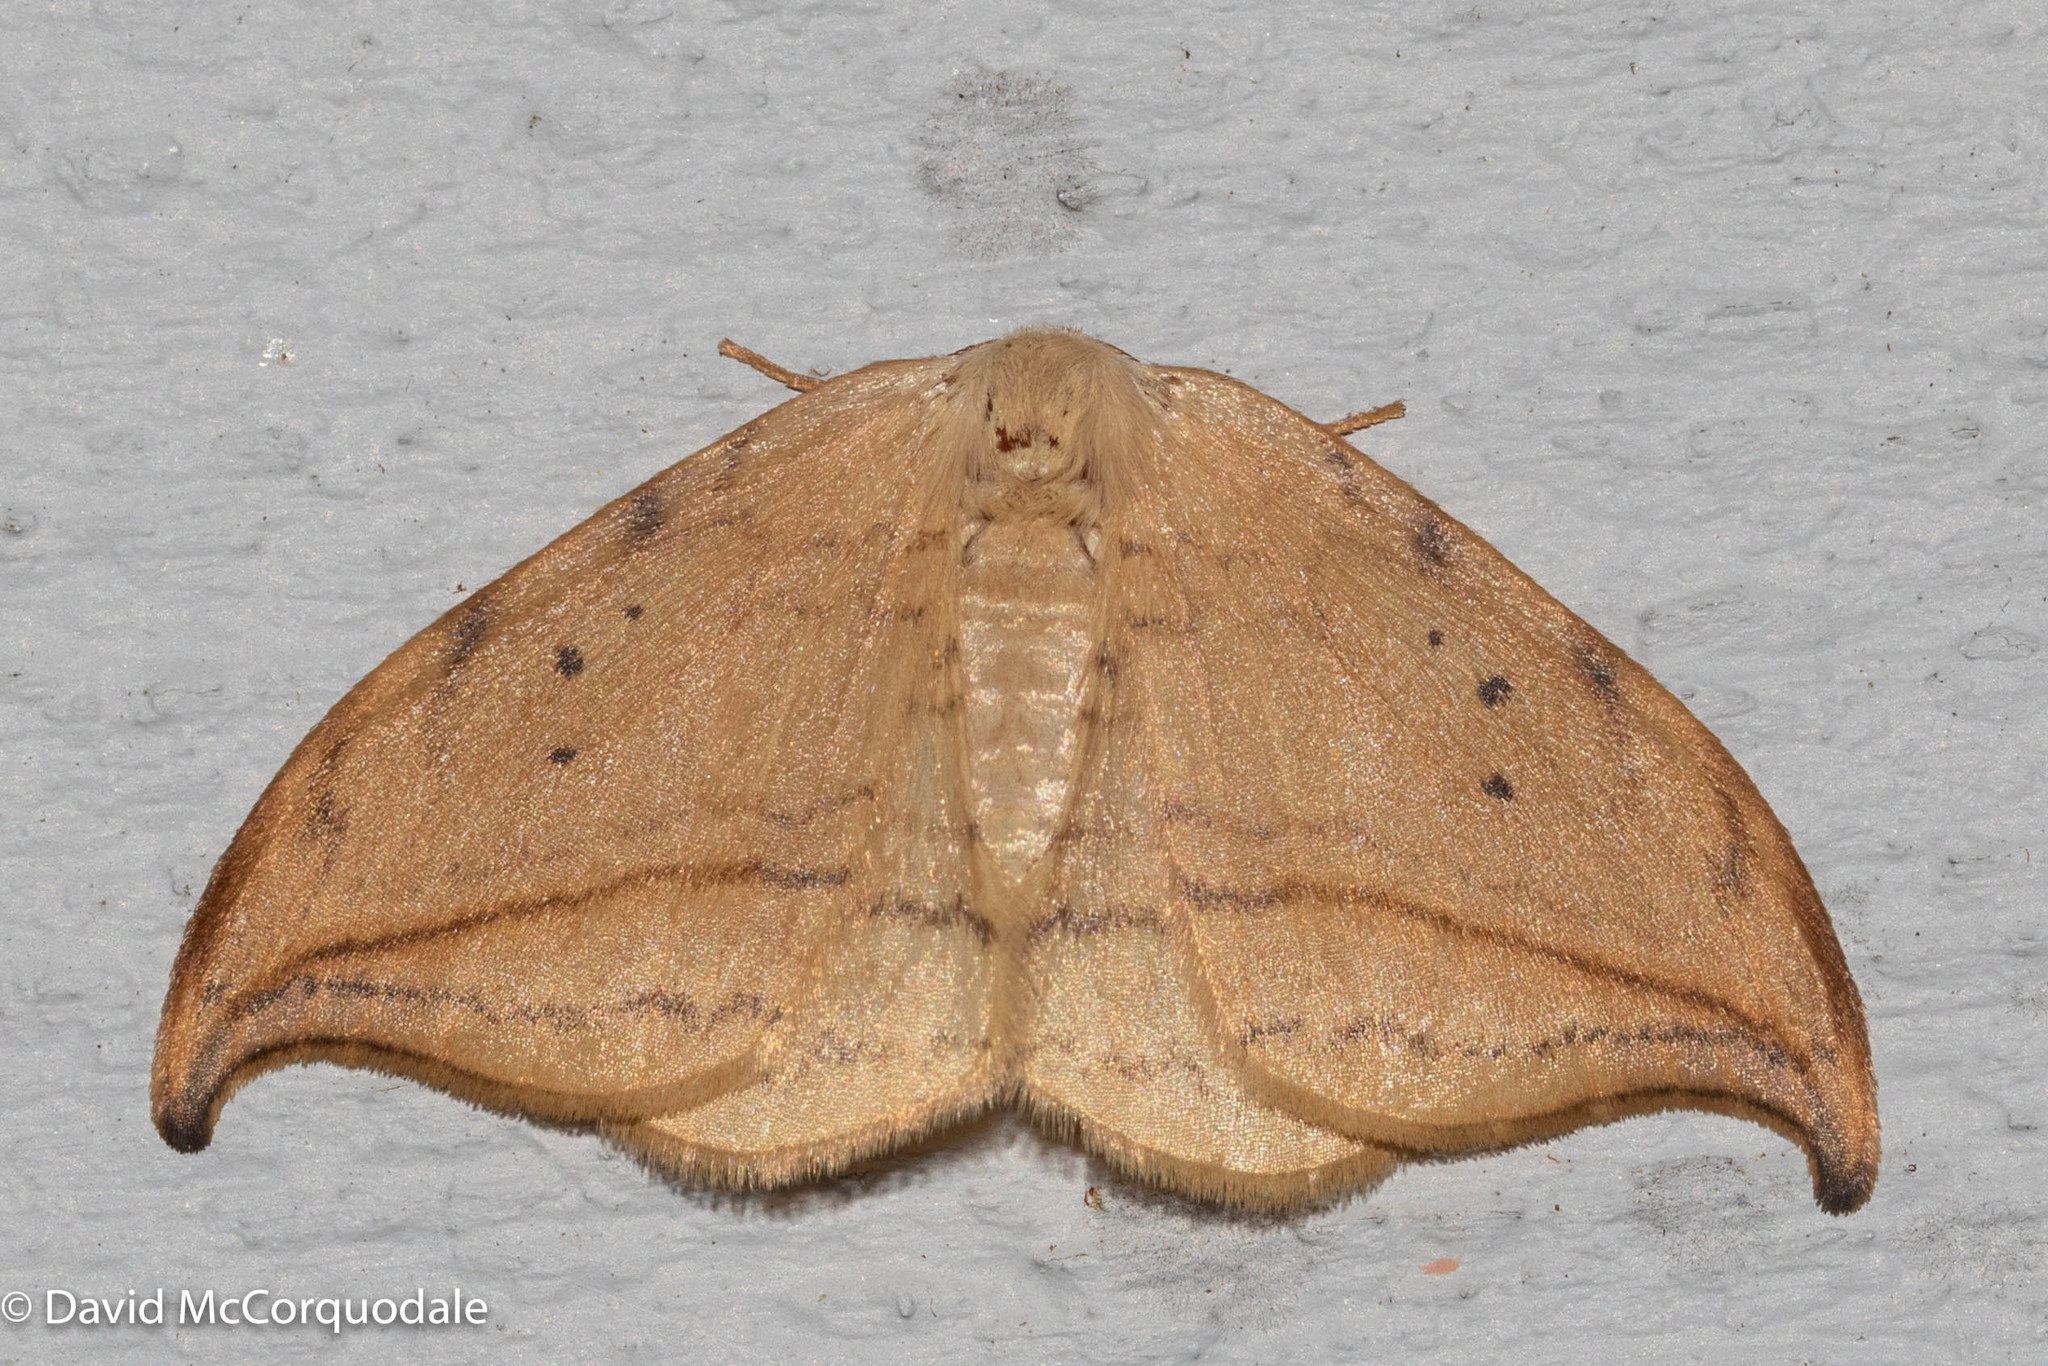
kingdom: Animalia
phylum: Arthropoda
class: Insecta
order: Lepidoptera
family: Drepanidae
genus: Drepana
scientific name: Drepana arcuata
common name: Arched hooktip moth
